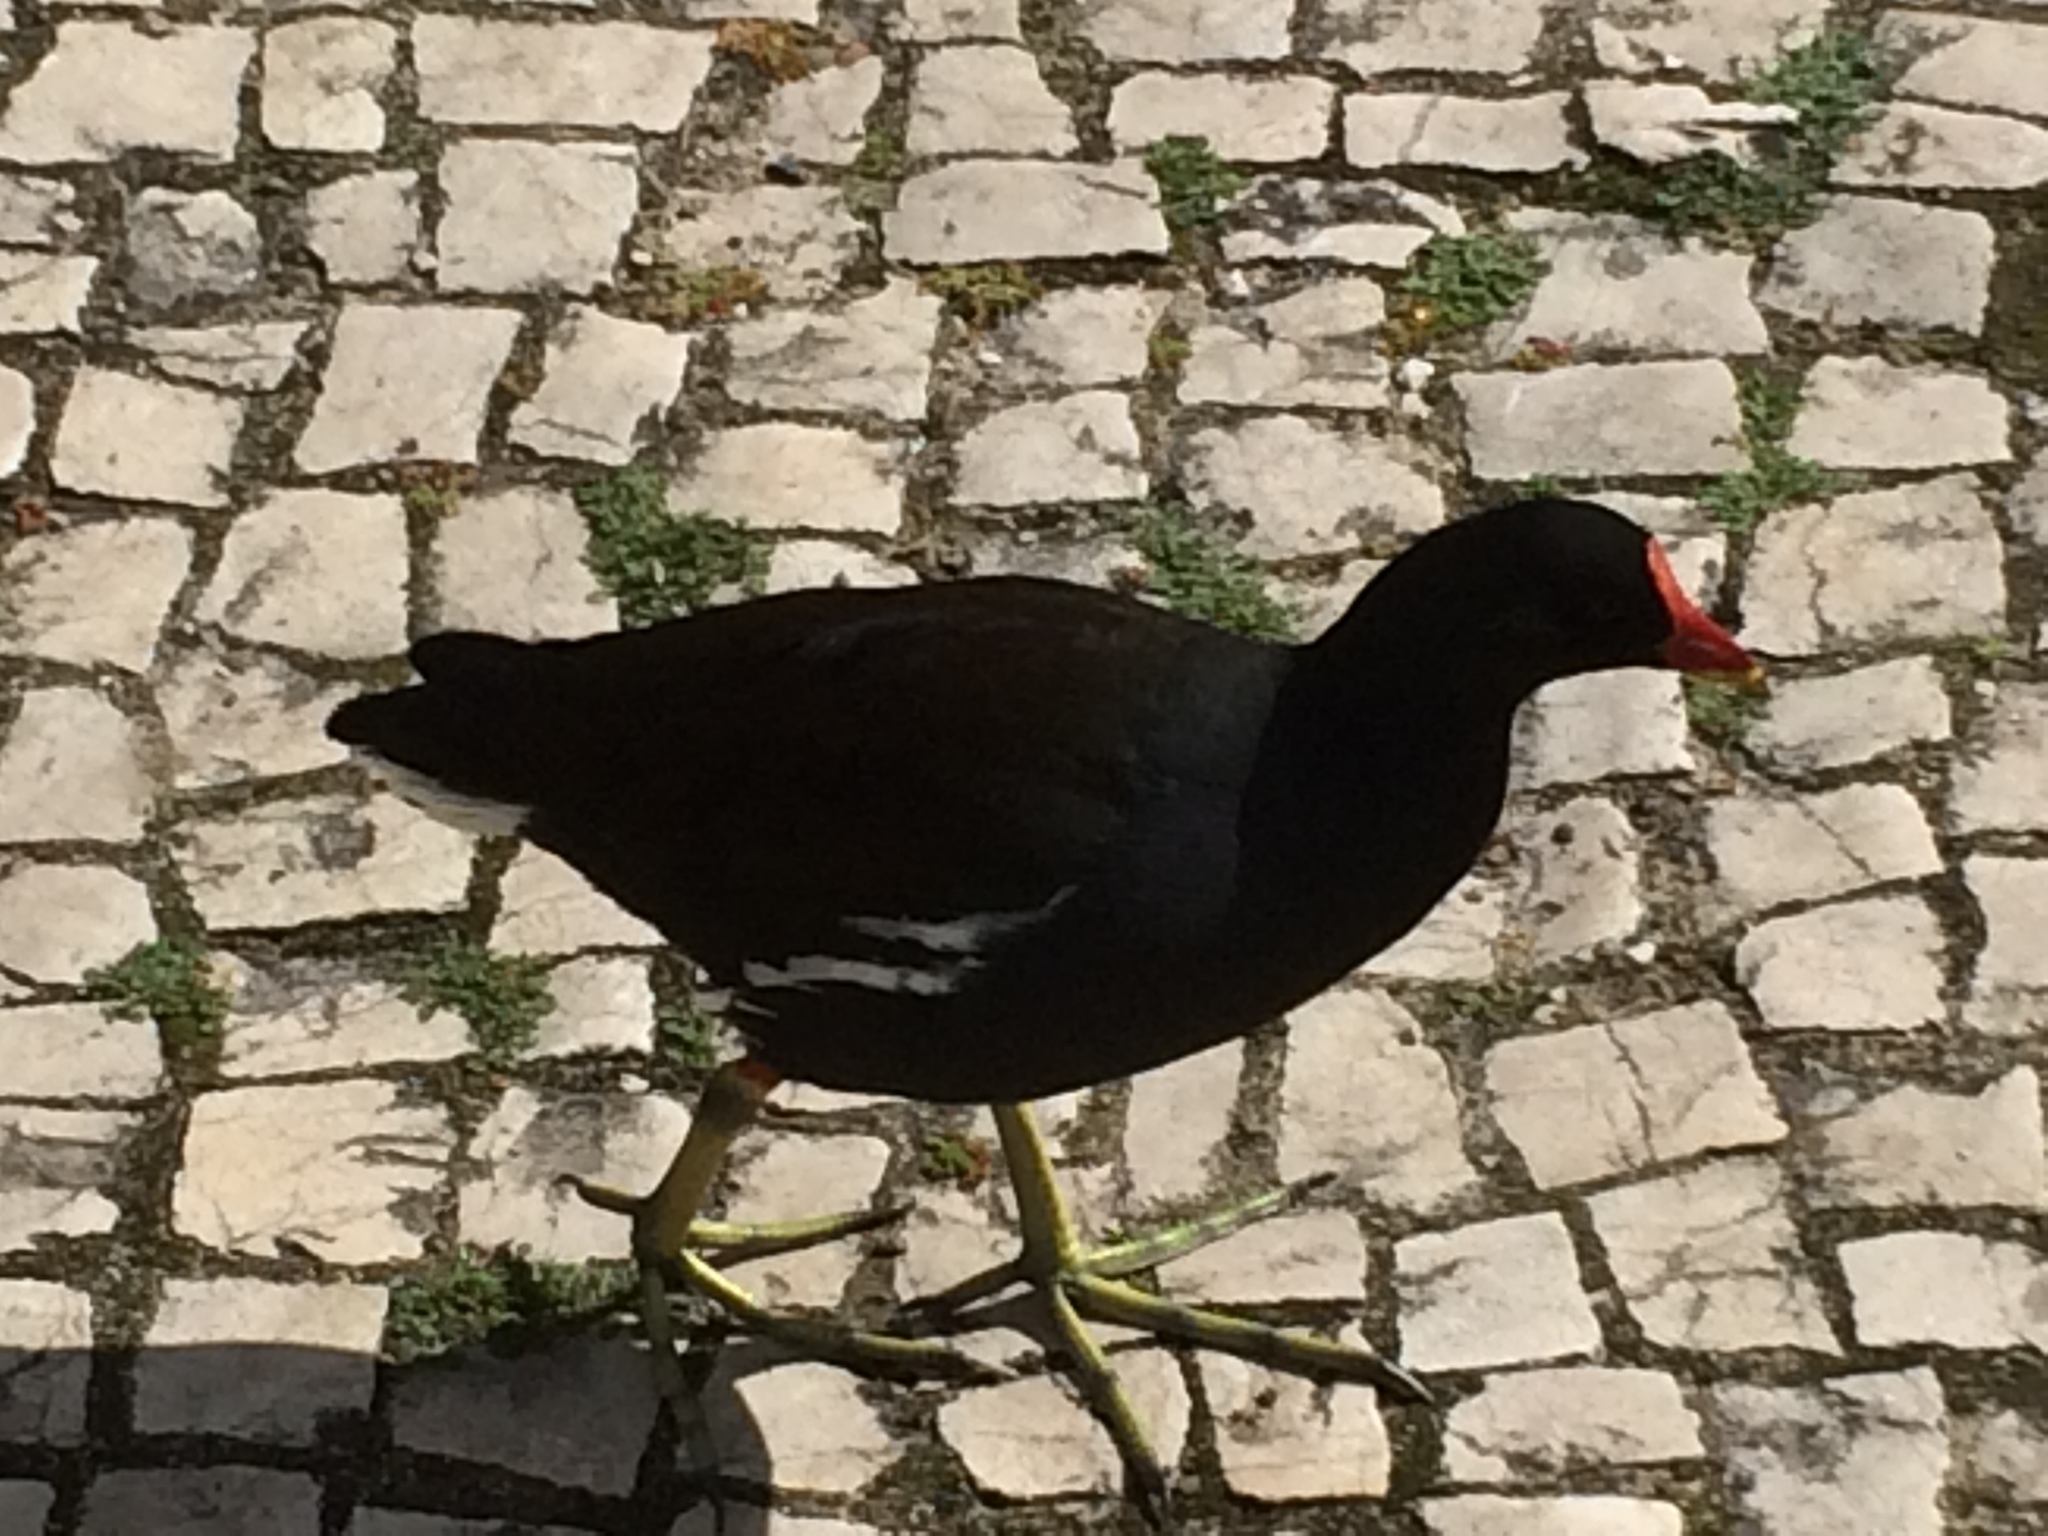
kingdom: Animalia
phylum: Chordata
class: Aves
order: Gruiformes
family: Rallidae
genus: Gallinula
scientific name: Gallinula chloropus
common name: Common moorhen
